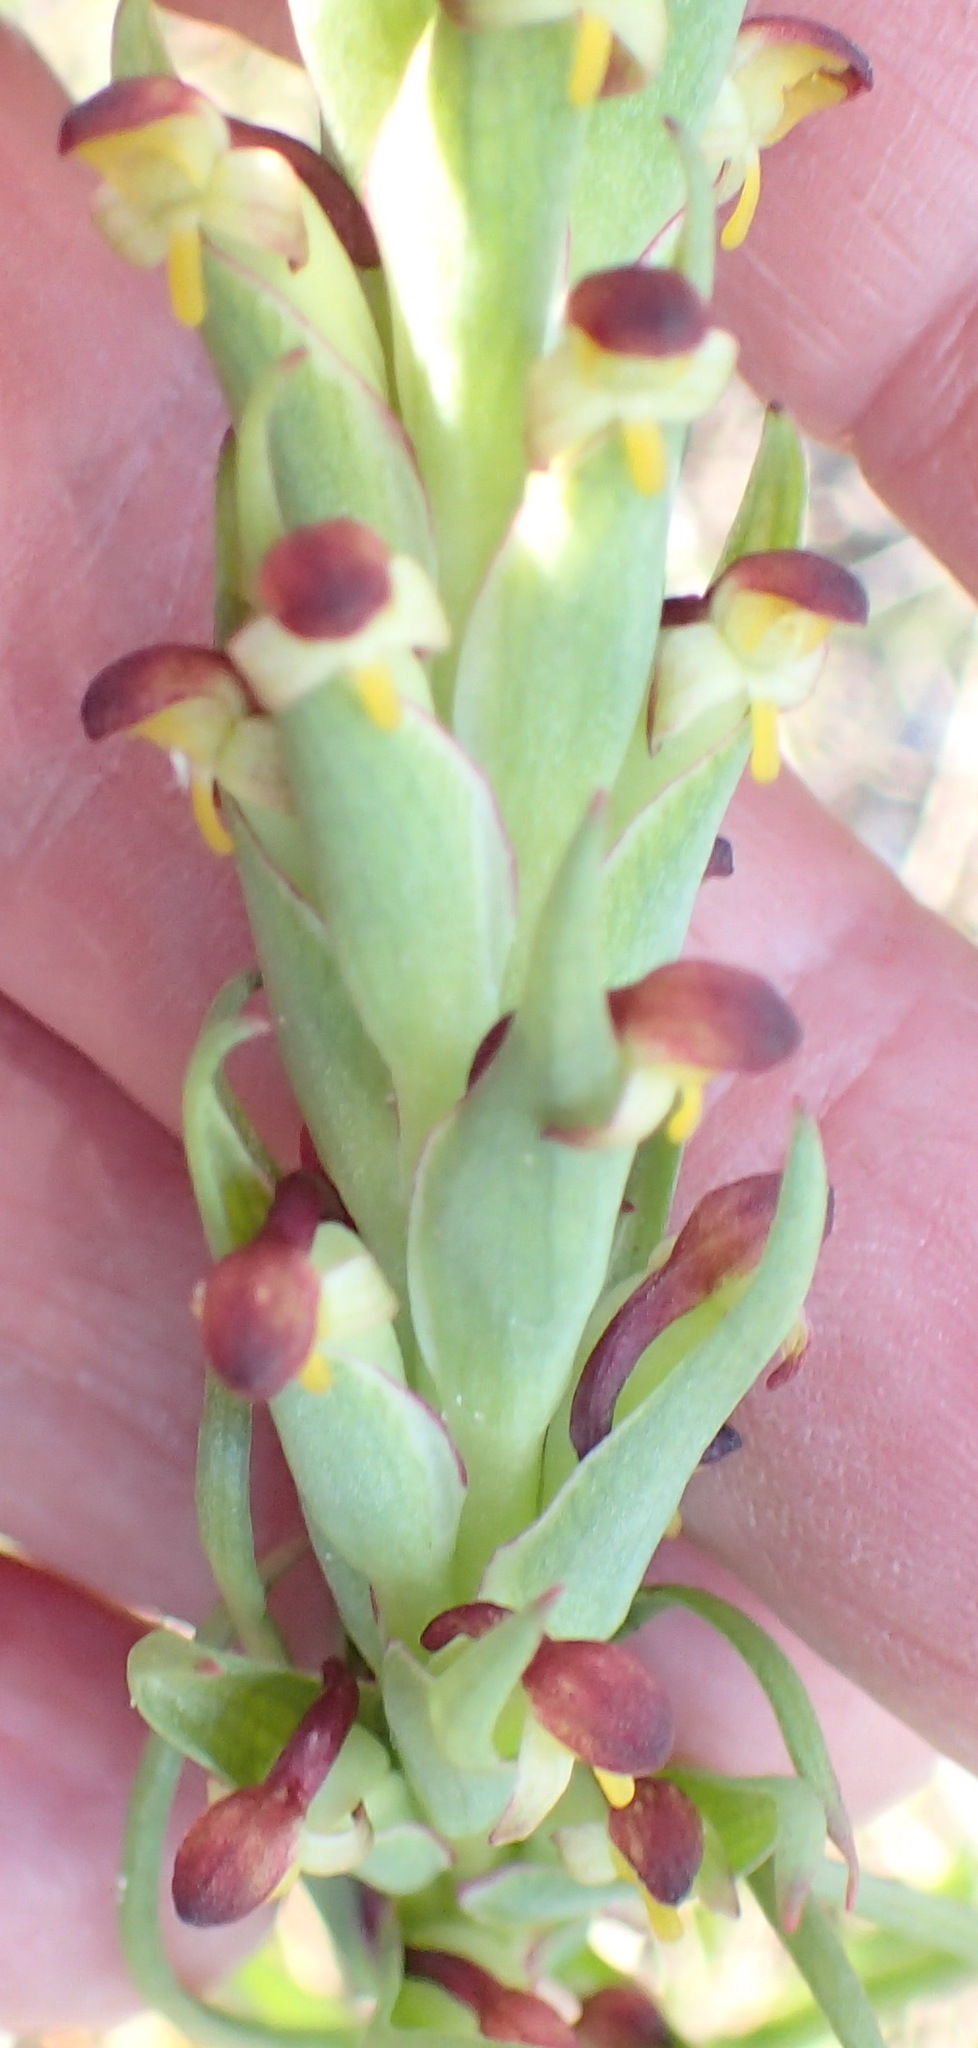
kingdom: Plantae
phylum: Tracheophyta
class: Liliopsida
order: Asparagales
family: Orchidaceae
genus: Disa
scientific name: Disa bracteata
